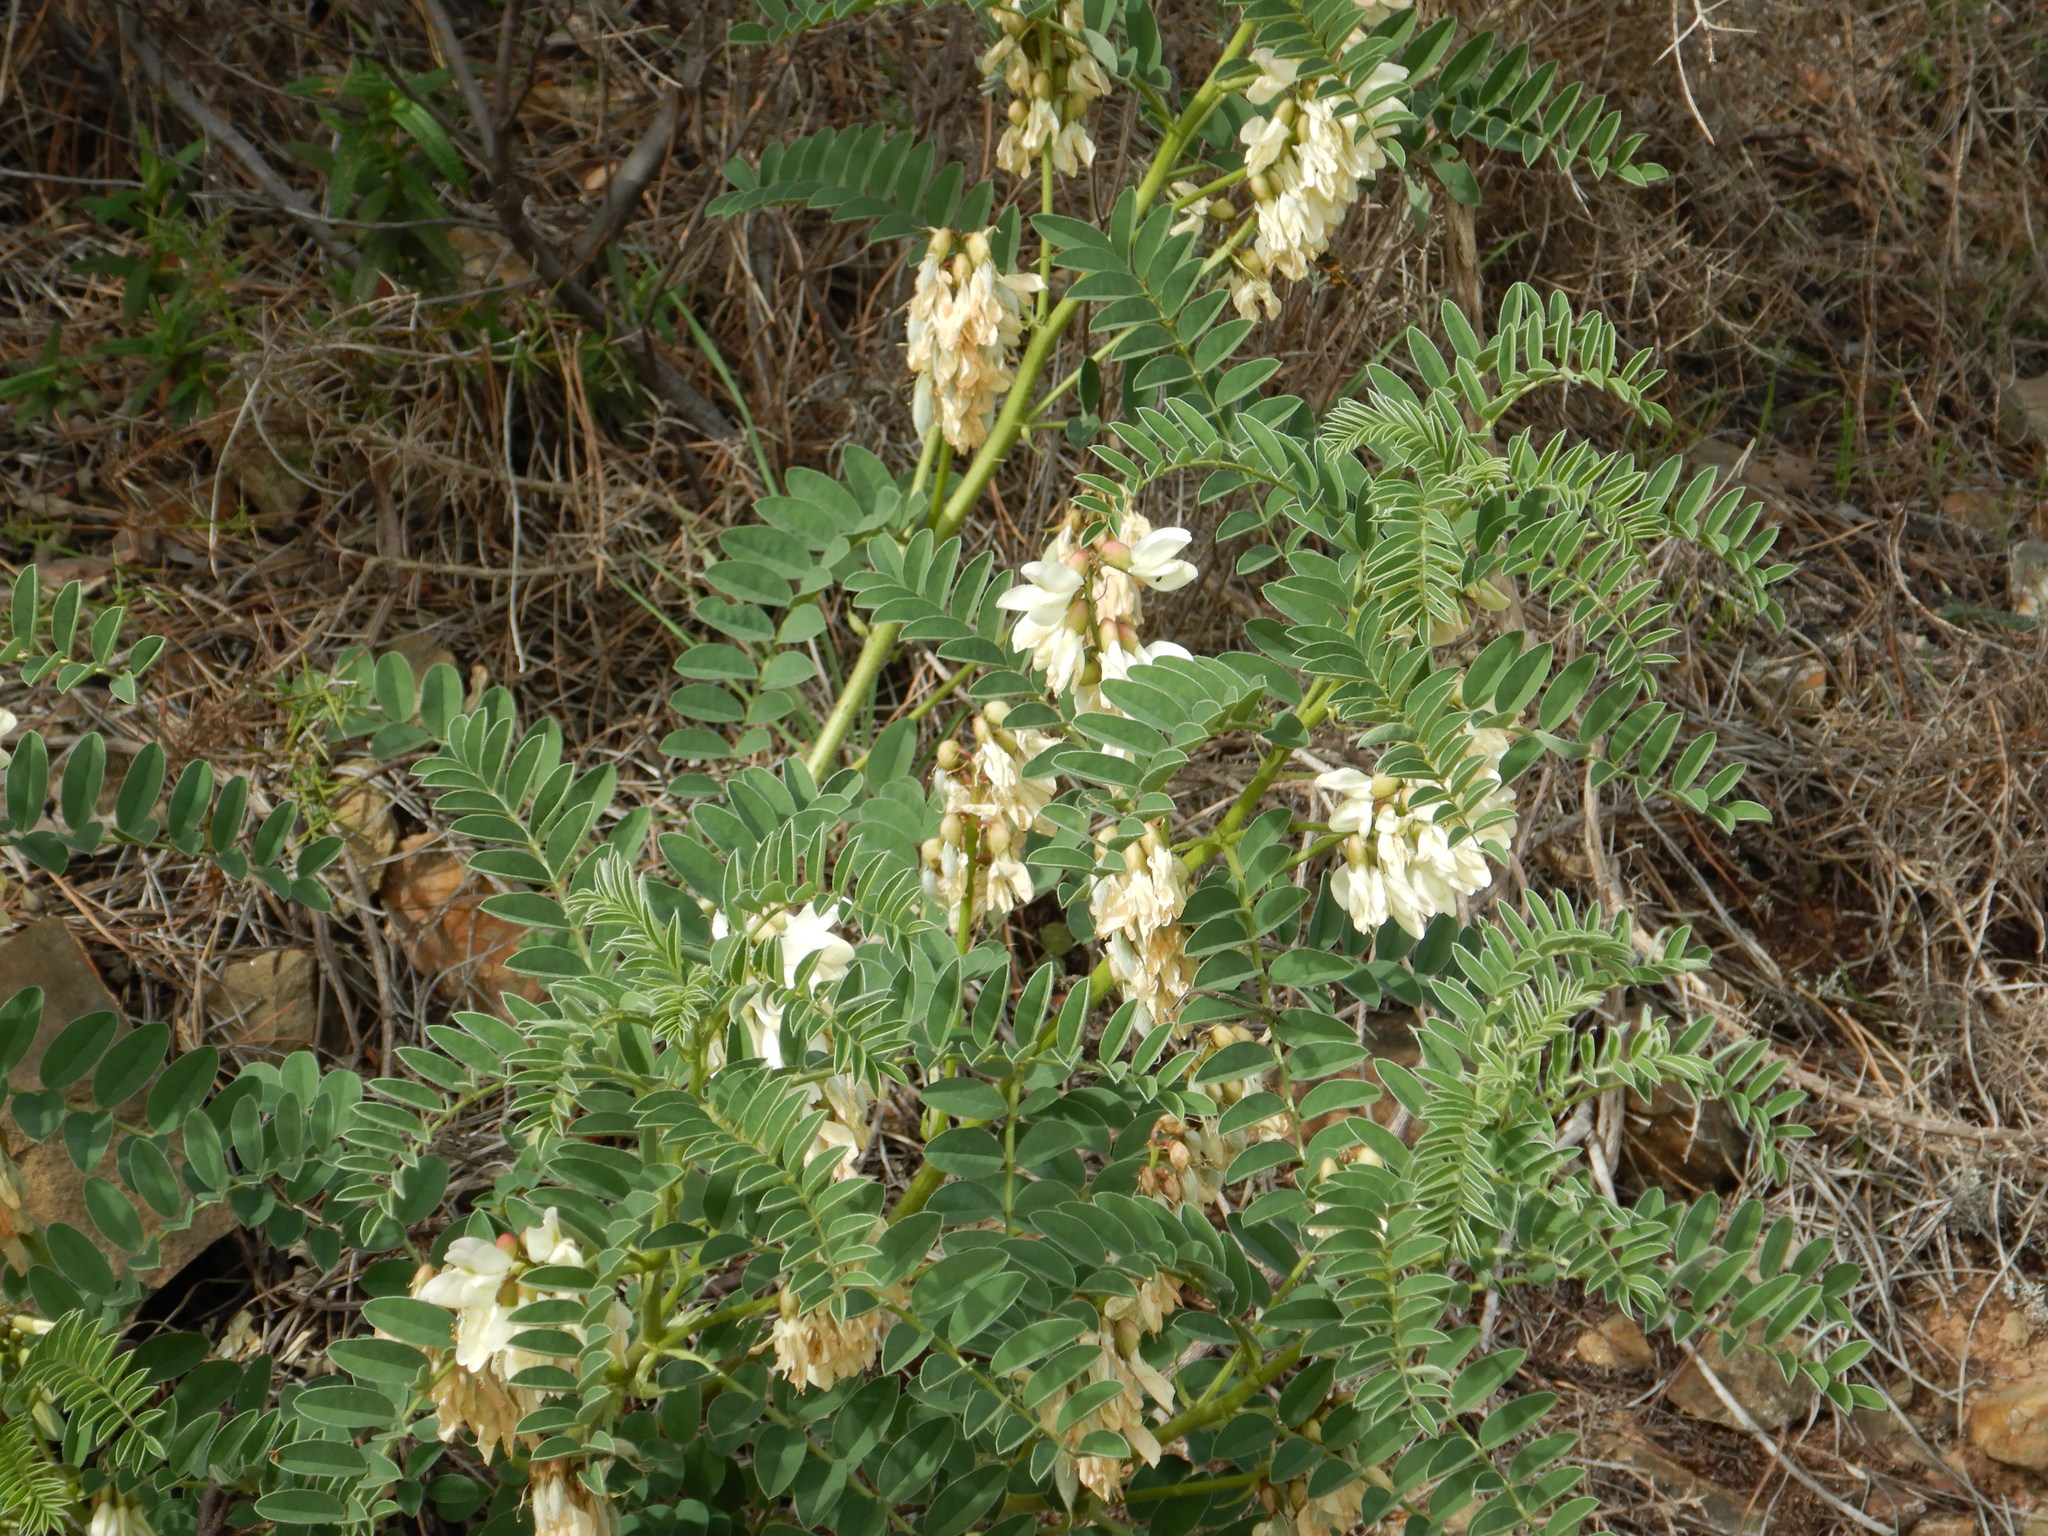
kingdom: Plantae
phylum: Tracheophyta
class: Magnoliopsida
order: Fabales
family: Fabaceae
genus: Erophaca
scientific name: Erophaca baetica
